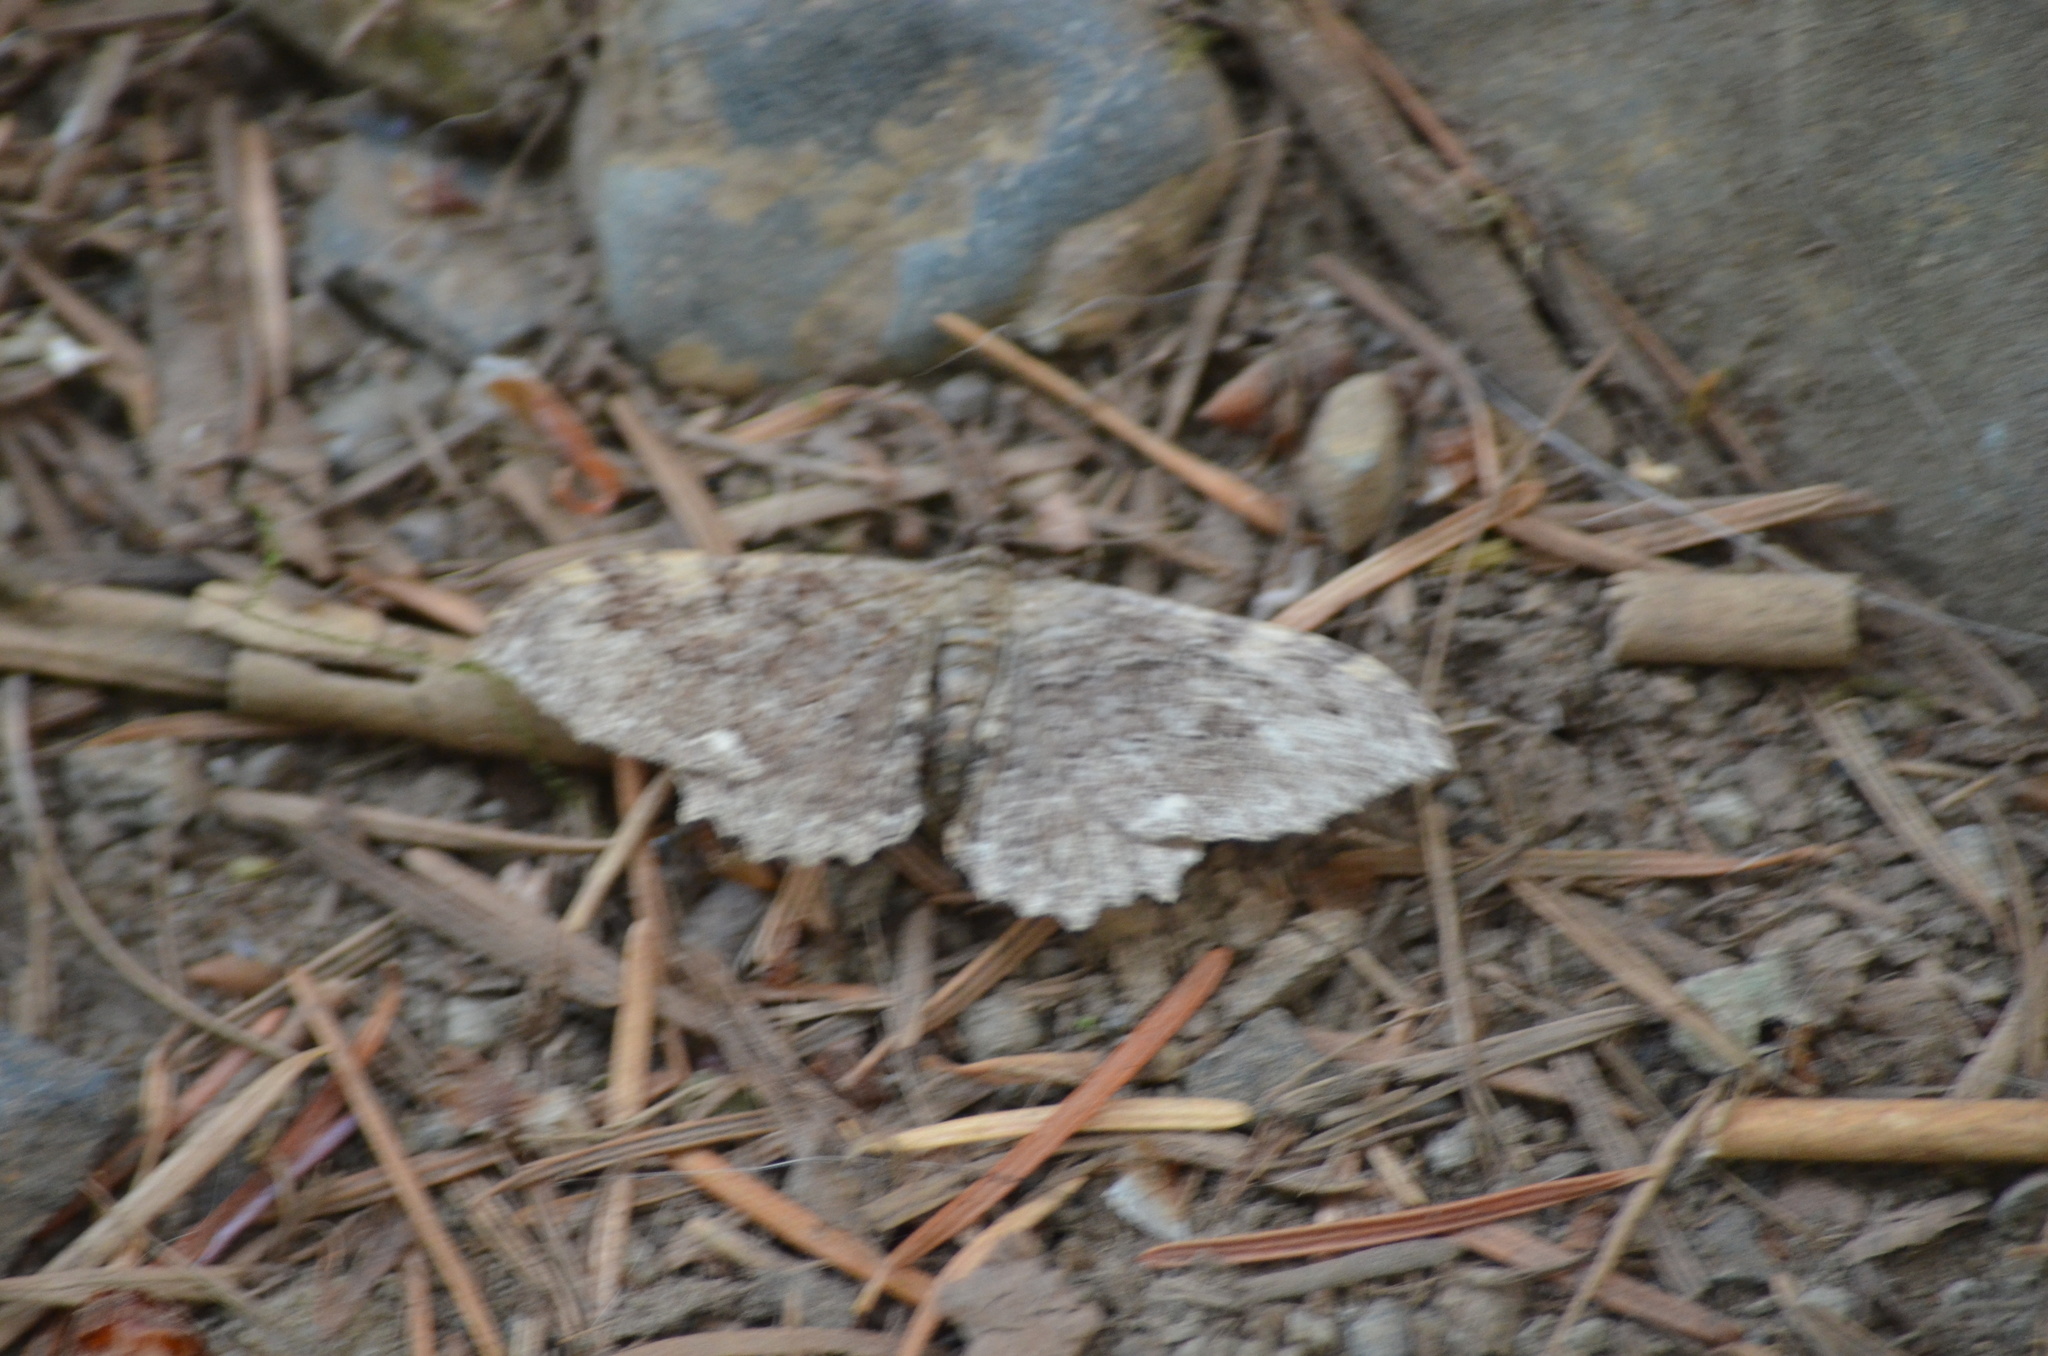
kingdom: Animalia
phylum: Arthropoda
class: Insecta
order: Lepidoptera
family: Geometridae
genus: Rheumaptera
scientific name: Rheumaptera
